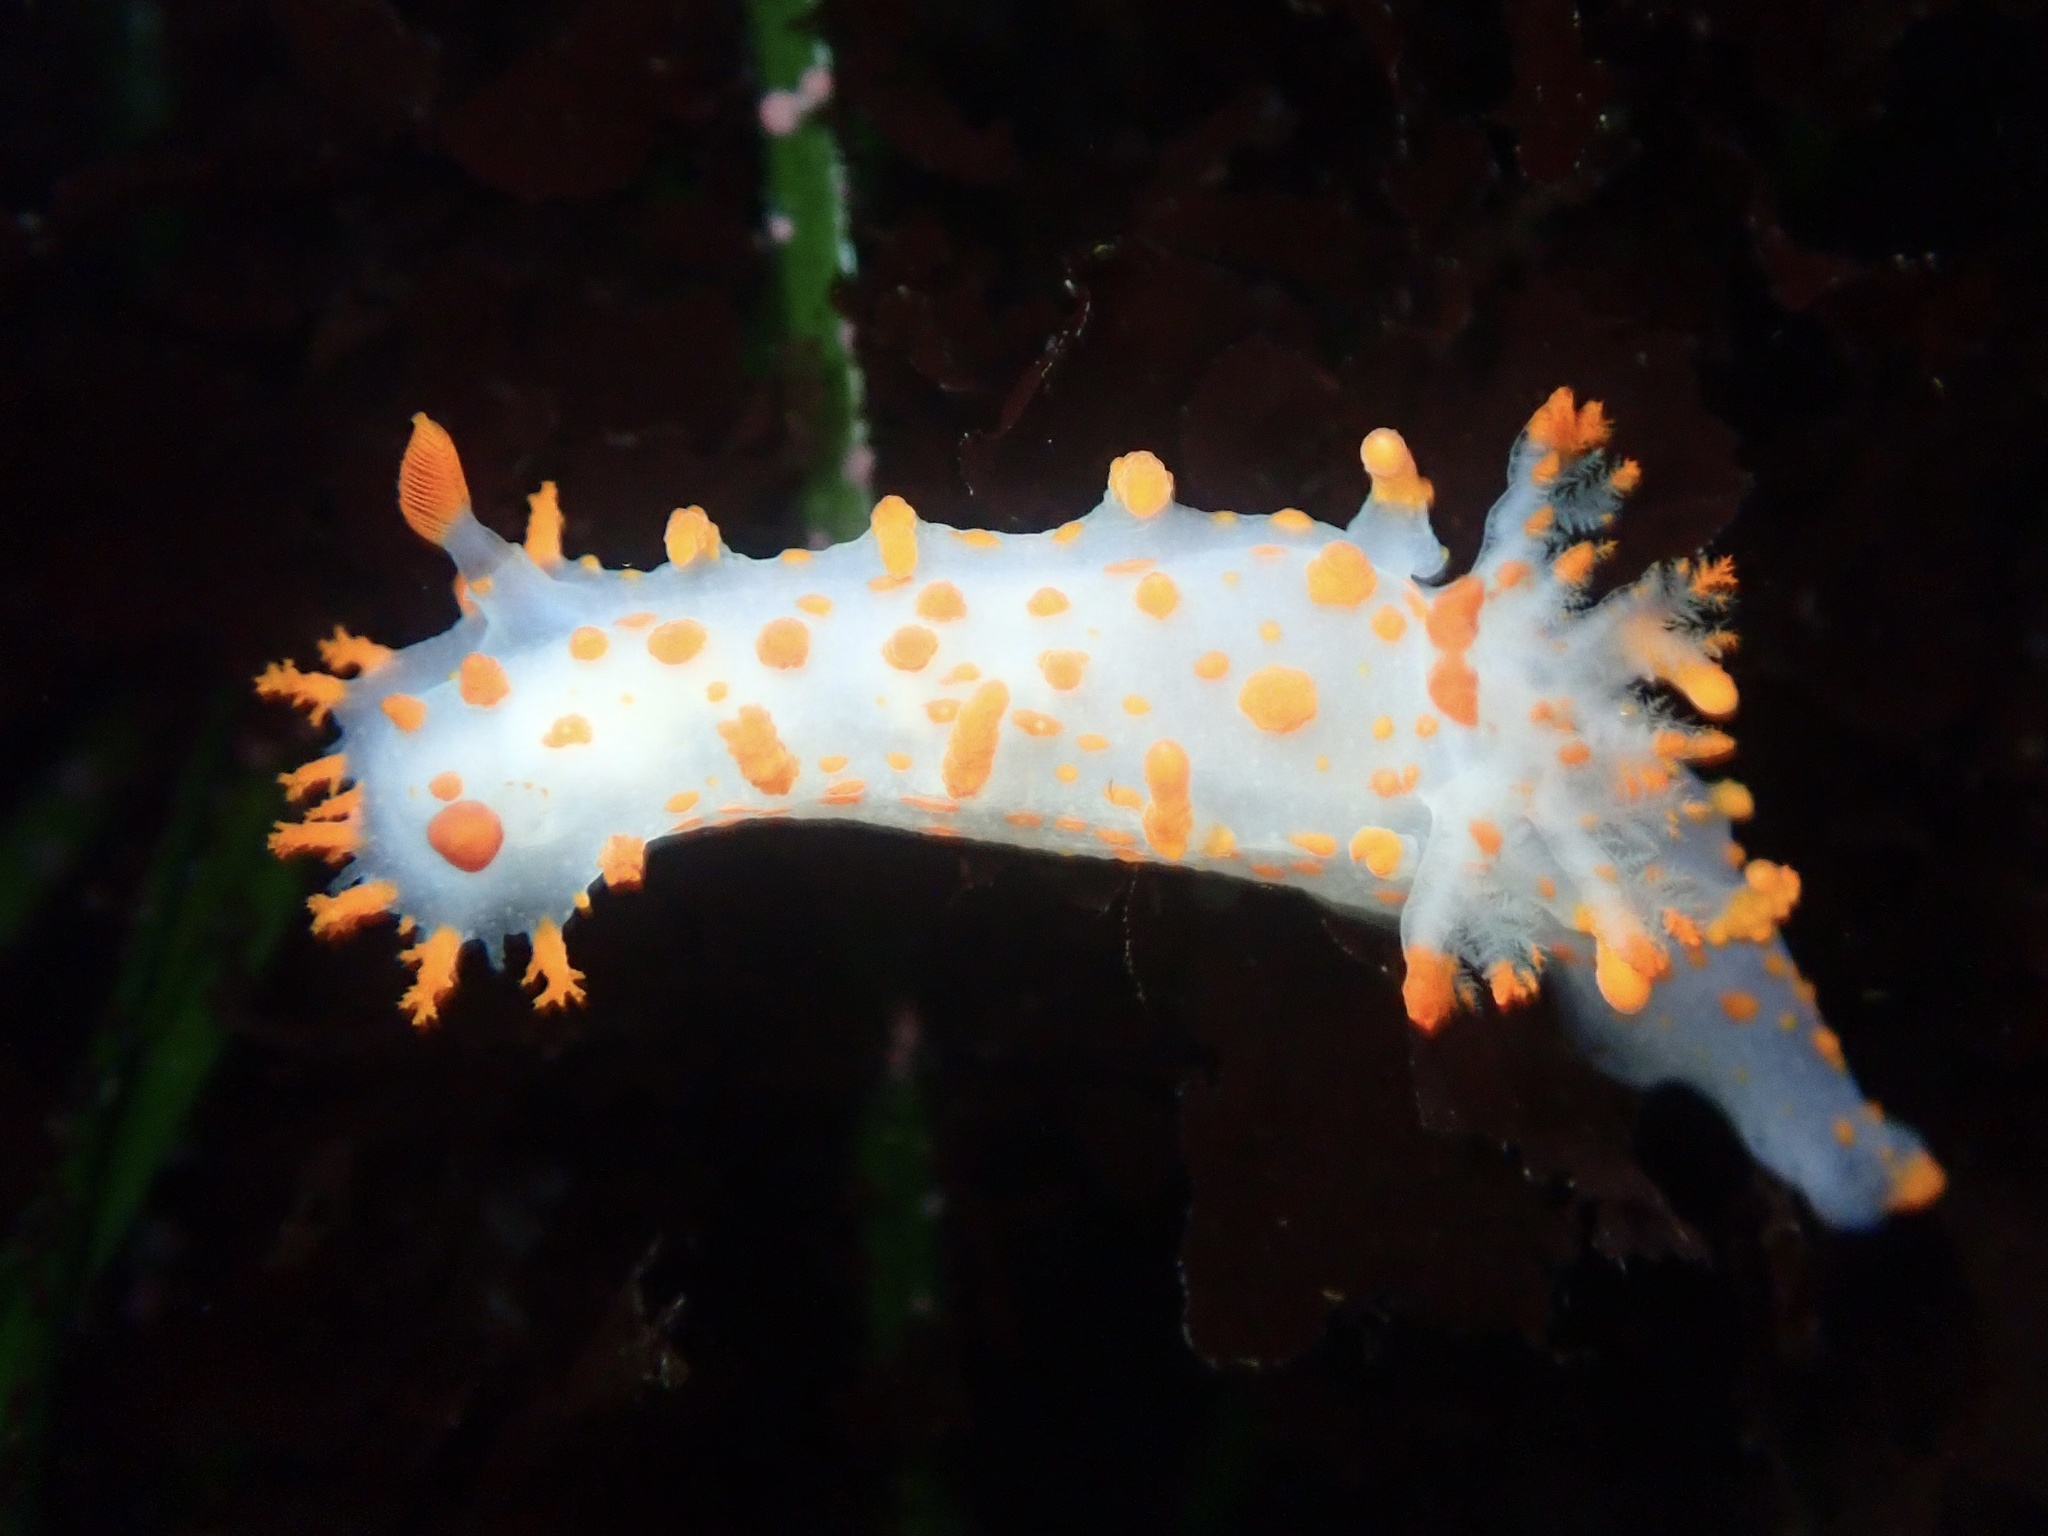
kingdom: Animalia
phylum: Mollusca
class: Gastropoda
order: Nudibranchia
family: Polyceridae
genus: Triopha
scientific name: Triopha catalinae
